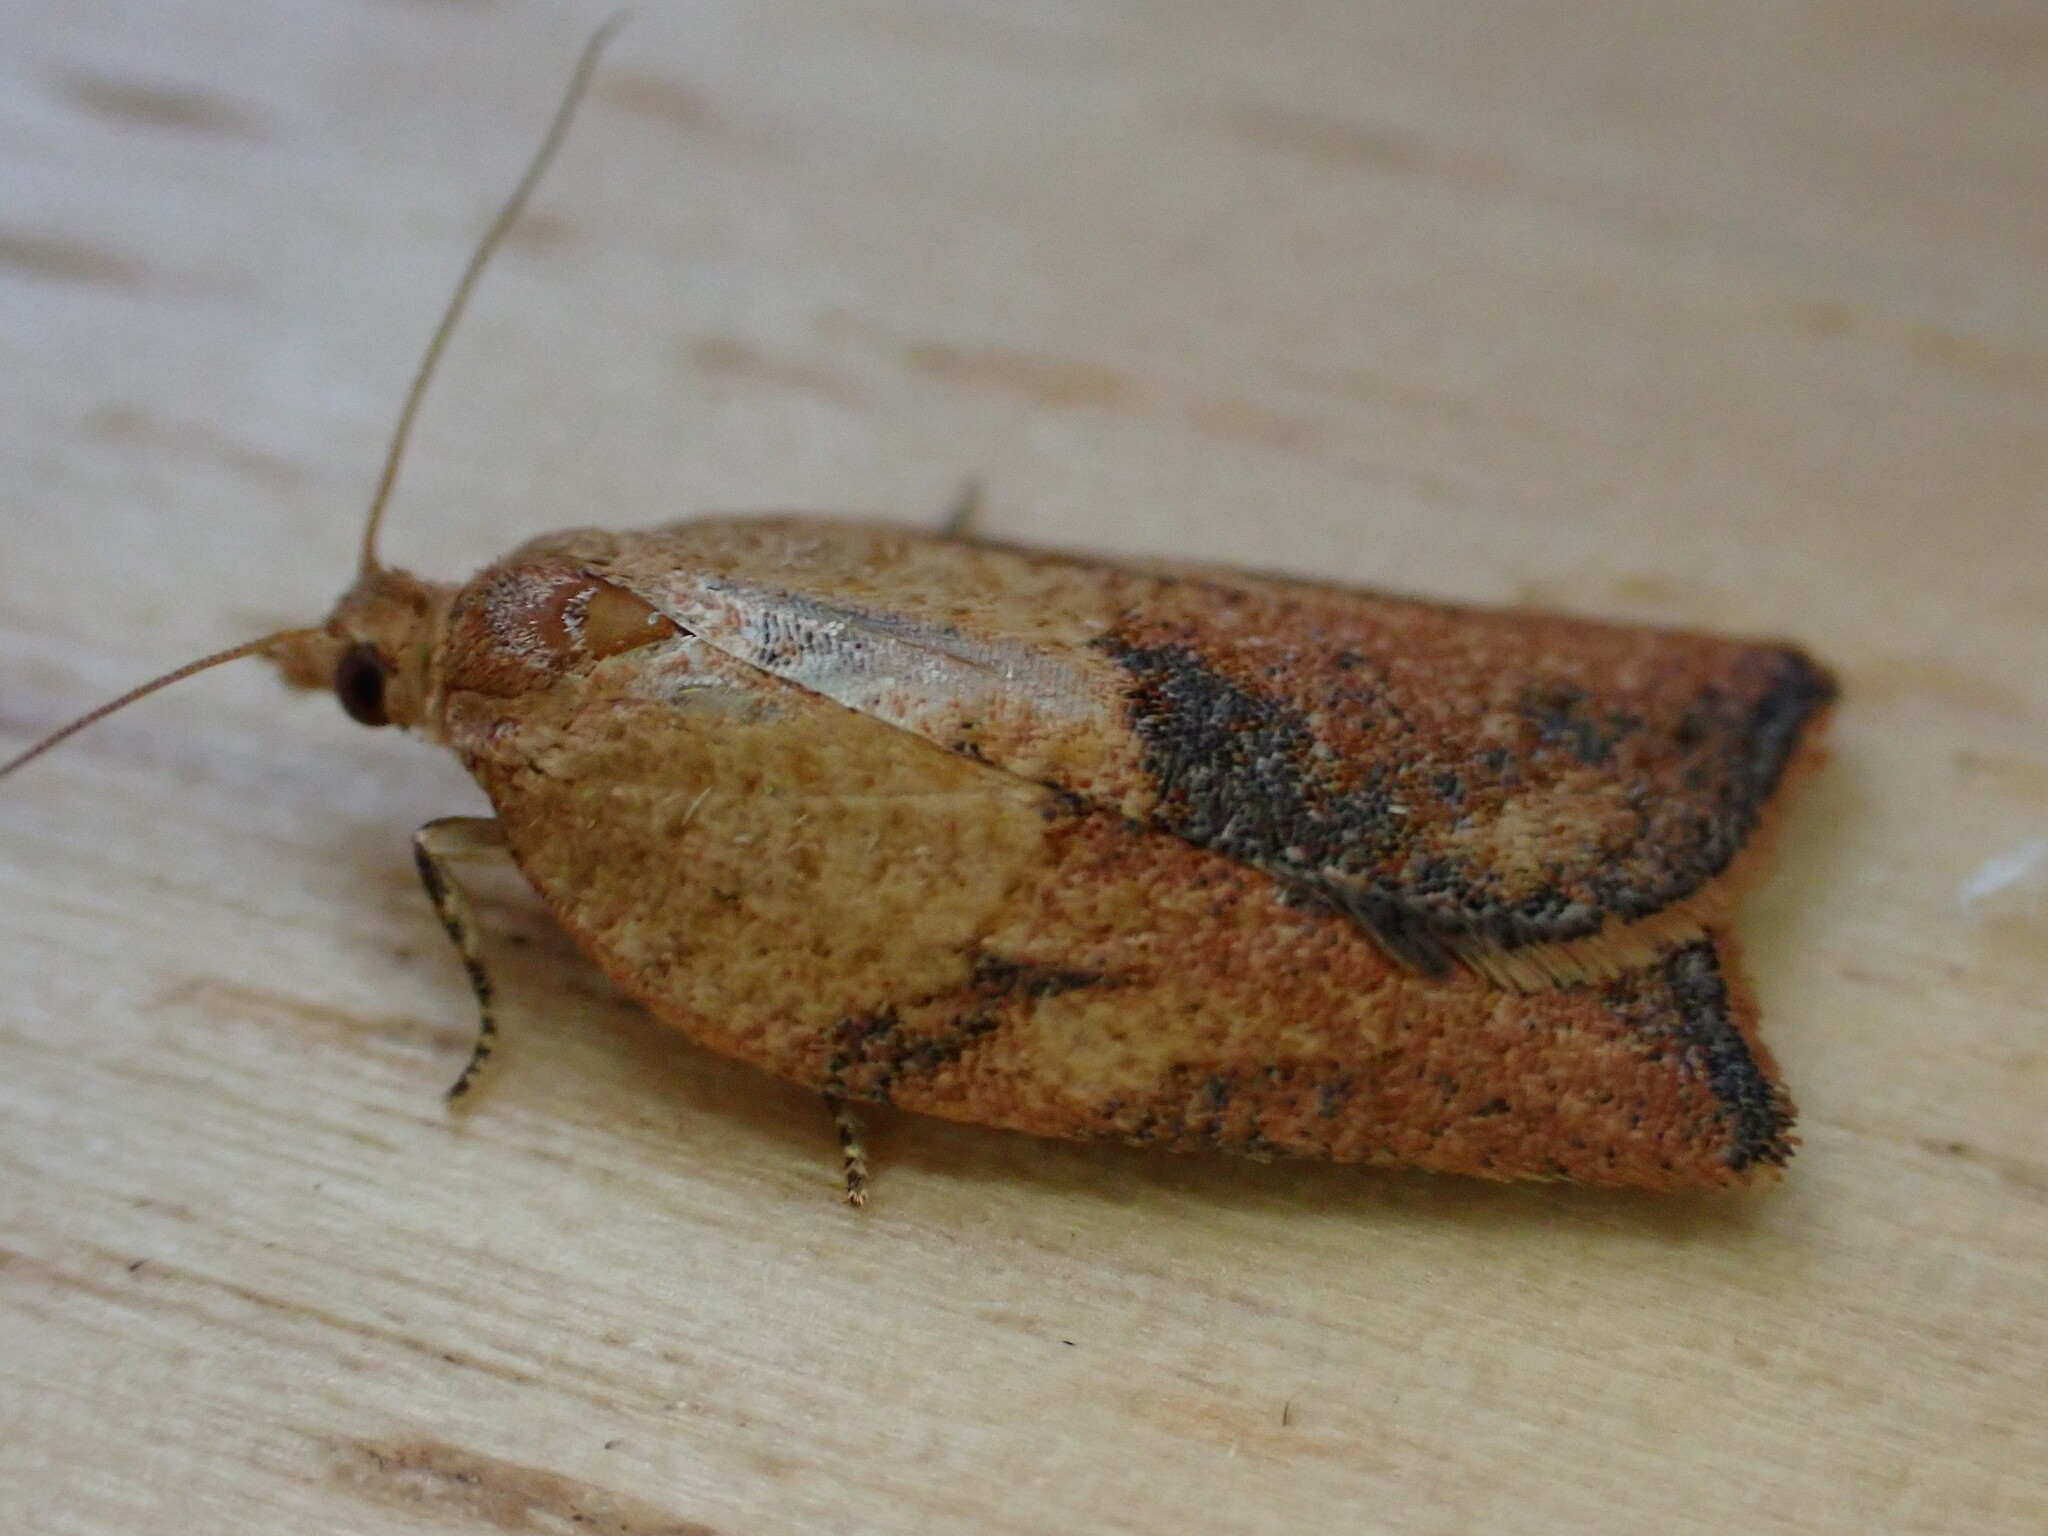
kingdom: Animalia
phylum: Arthropoda
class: Insecta
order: Lepidoptera
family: Tortricidae
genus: Epiphyas
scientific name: Epiphyas postvittana
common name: Light brown apple moth
